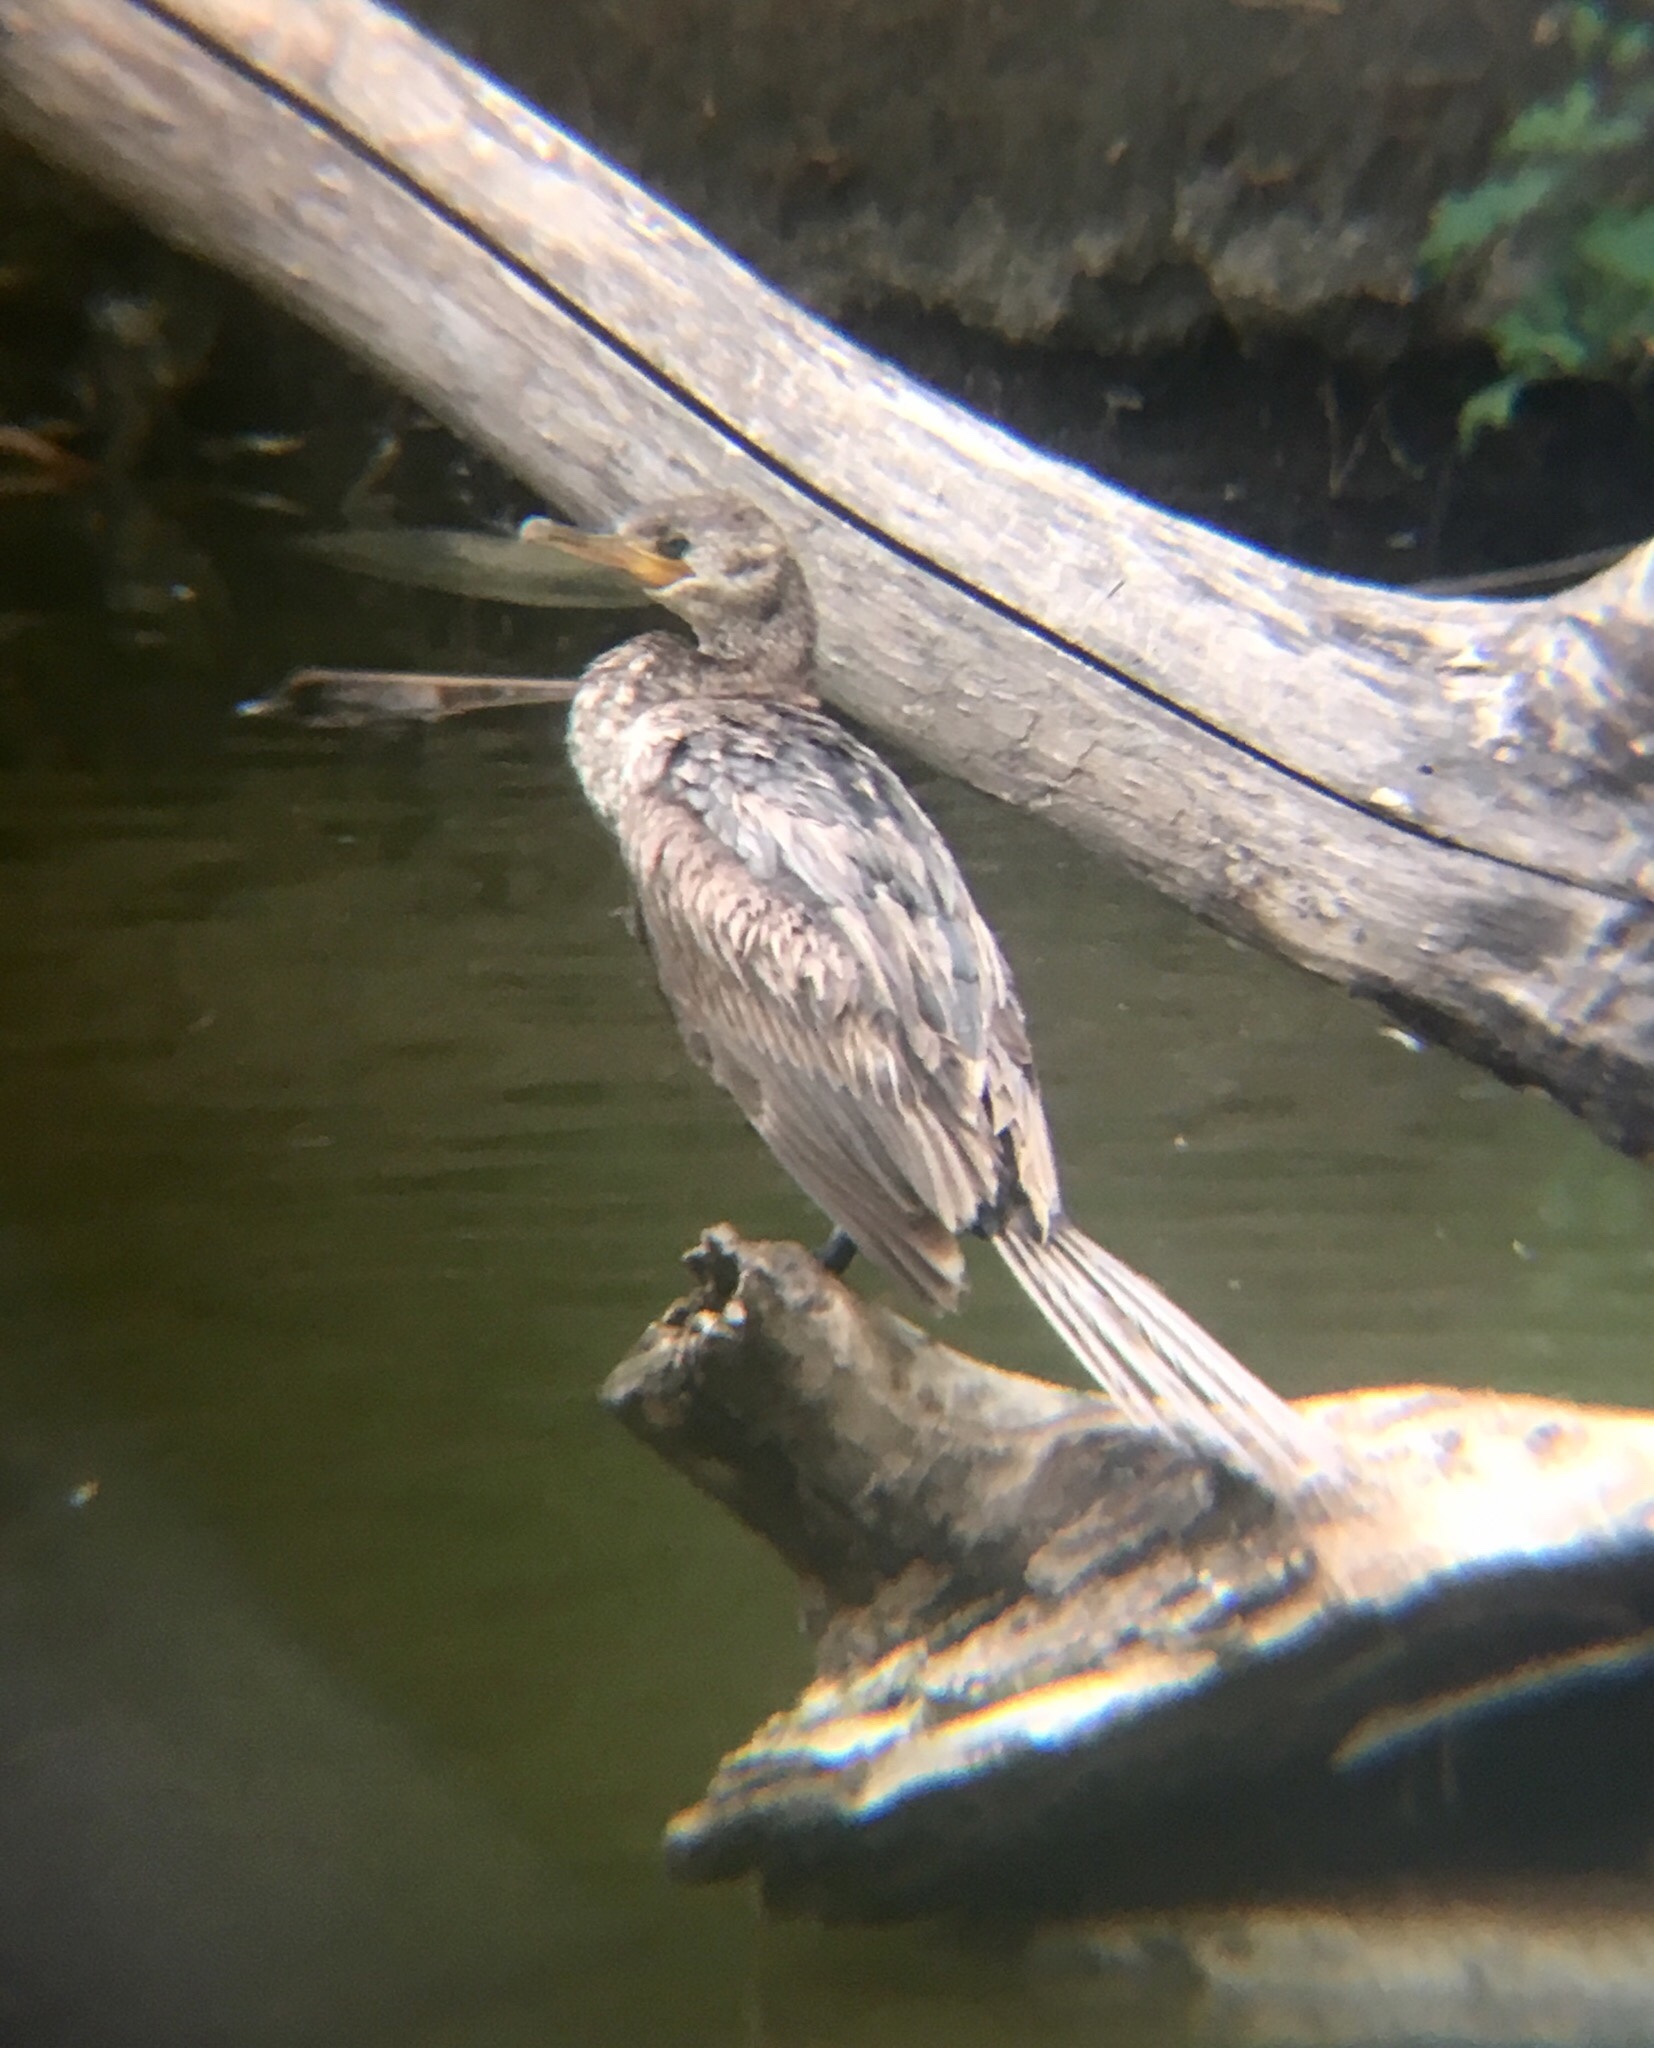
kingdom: Animalia
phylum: Chordata
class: Aves
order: Suliformes
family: Phalacrocoracidae
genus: Phalacrocorax
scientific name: Phalacrocorax brasilianus
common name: Neotropic cormorant
